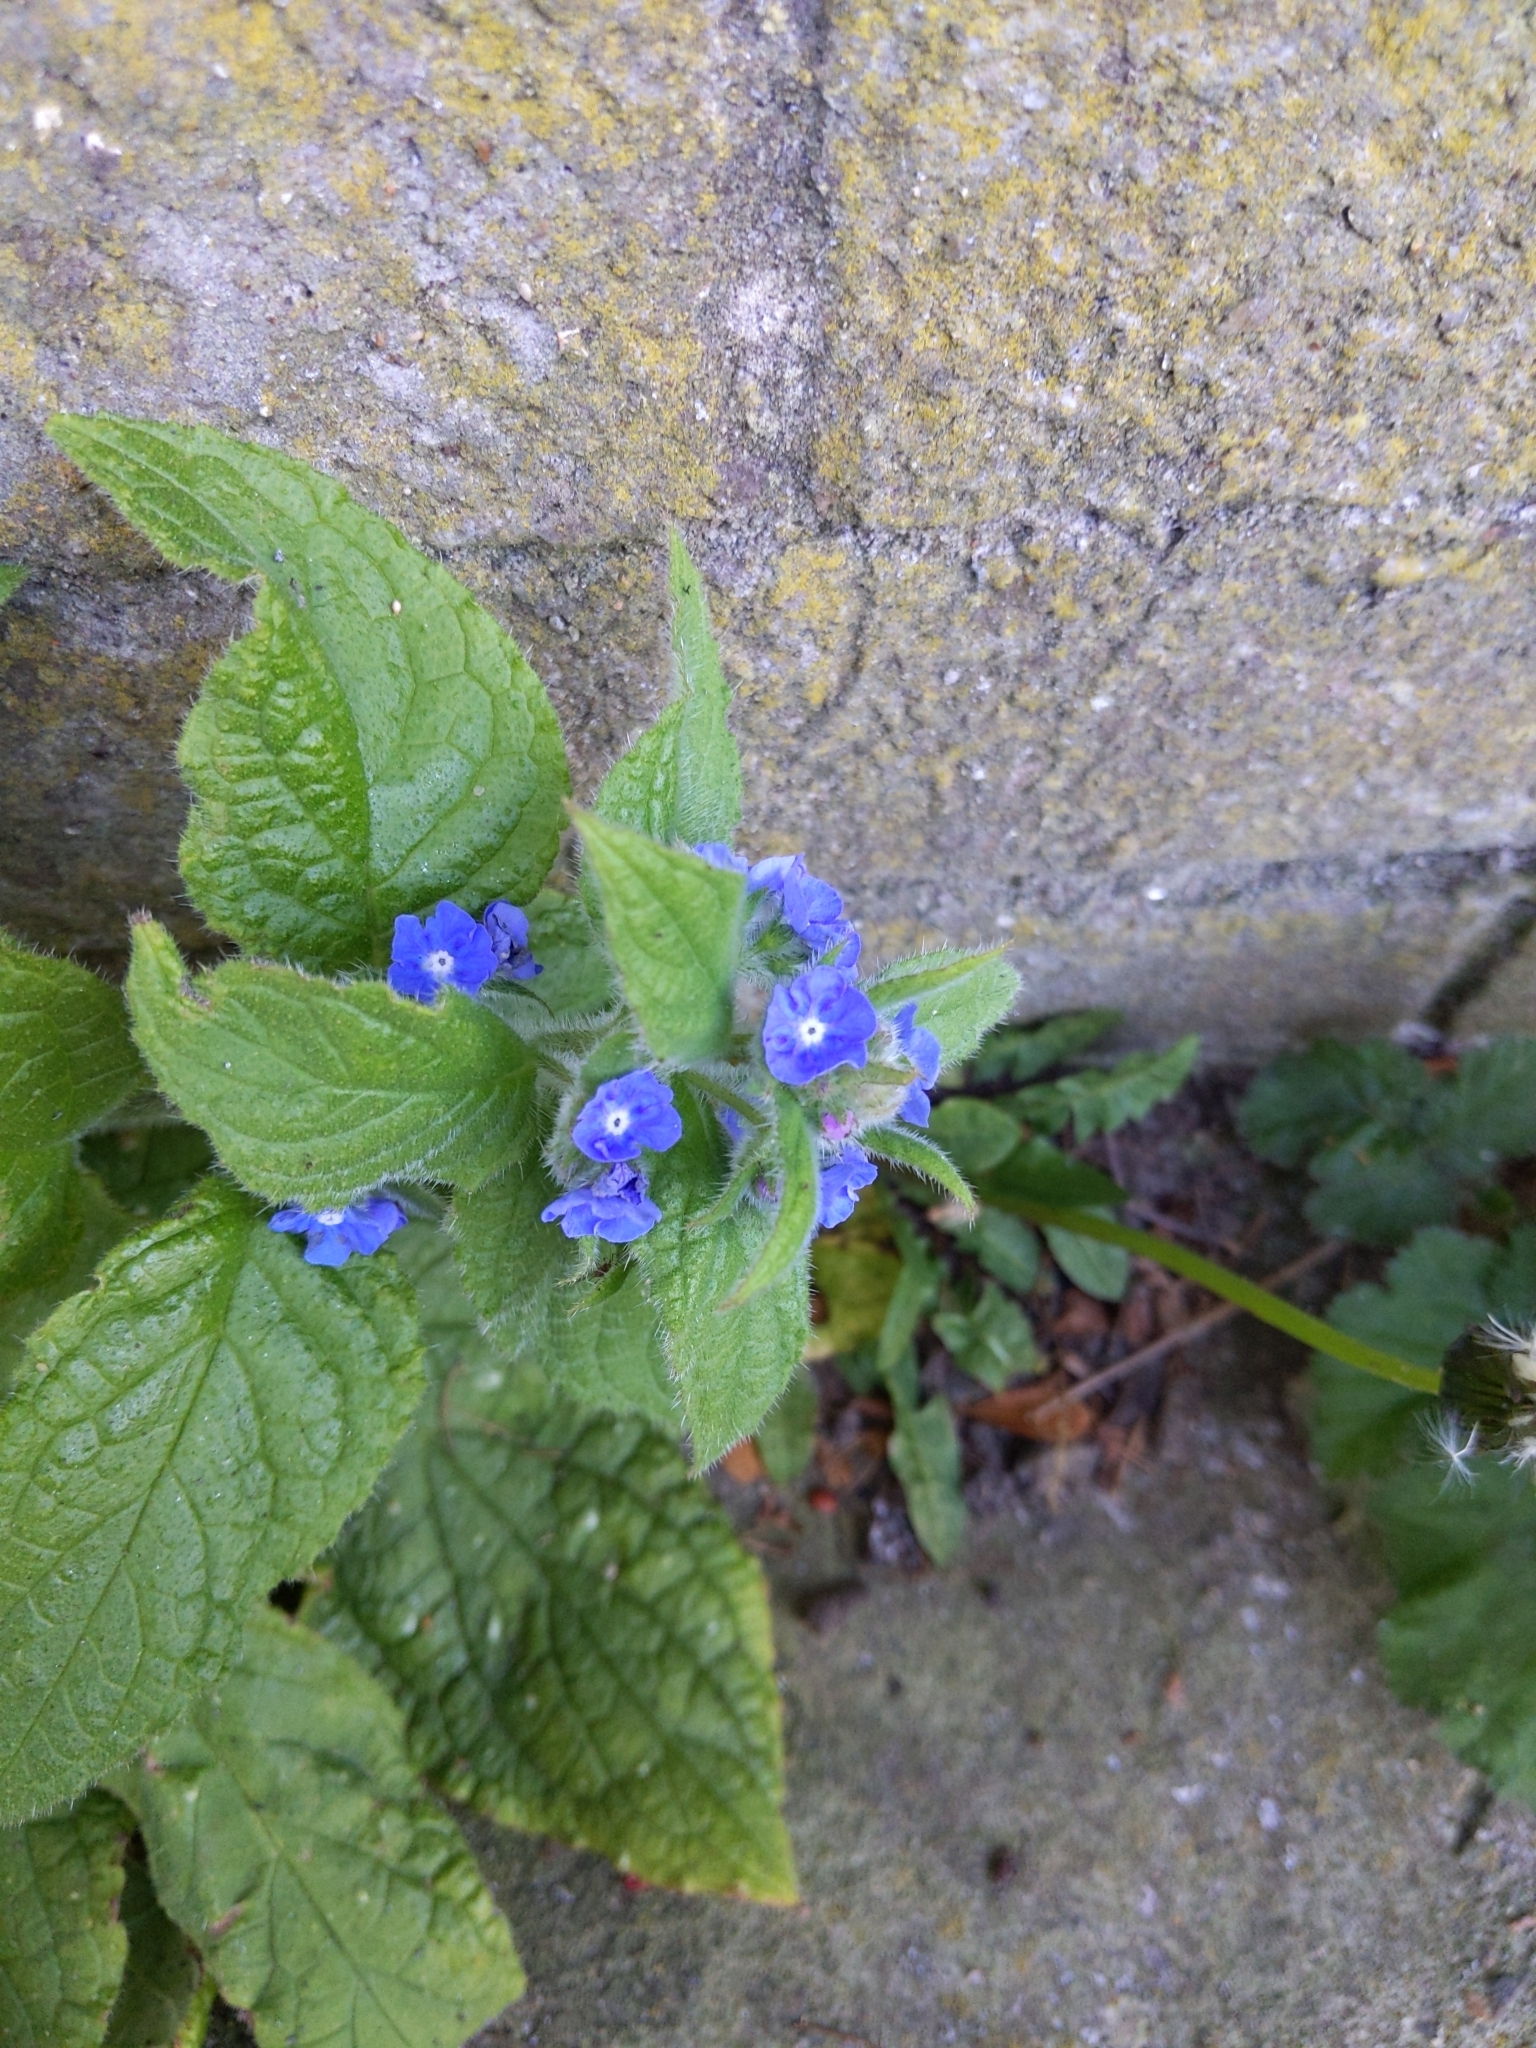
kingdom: Plantae
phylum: Tracheophyta
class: Magnoliopsida
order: Boraginales
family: Boraginaceae
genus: Pentaglottis
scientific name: Pentaglottis sempervirens
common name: Green alkanet
